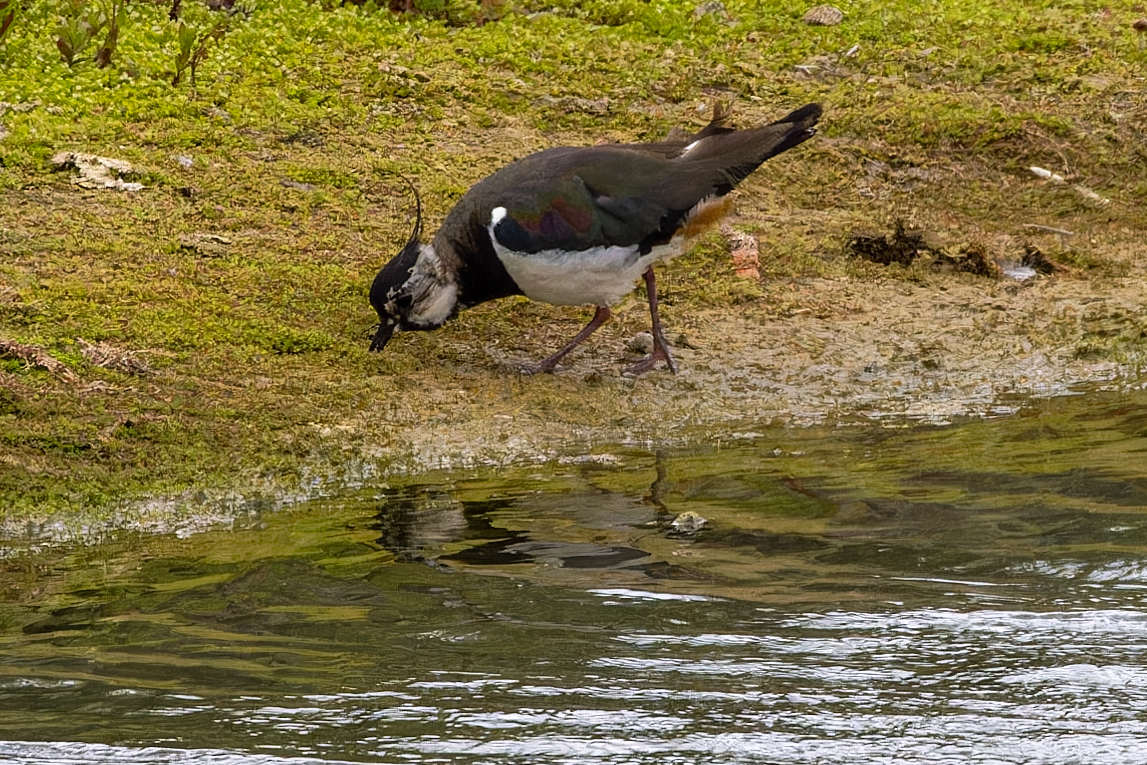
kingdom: Animalia
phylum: Chordata
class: Aves
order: Charadriiformes
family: Charadriidae
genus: Vanellus
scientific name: Vanellus vanellus
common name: Northern lapwing
